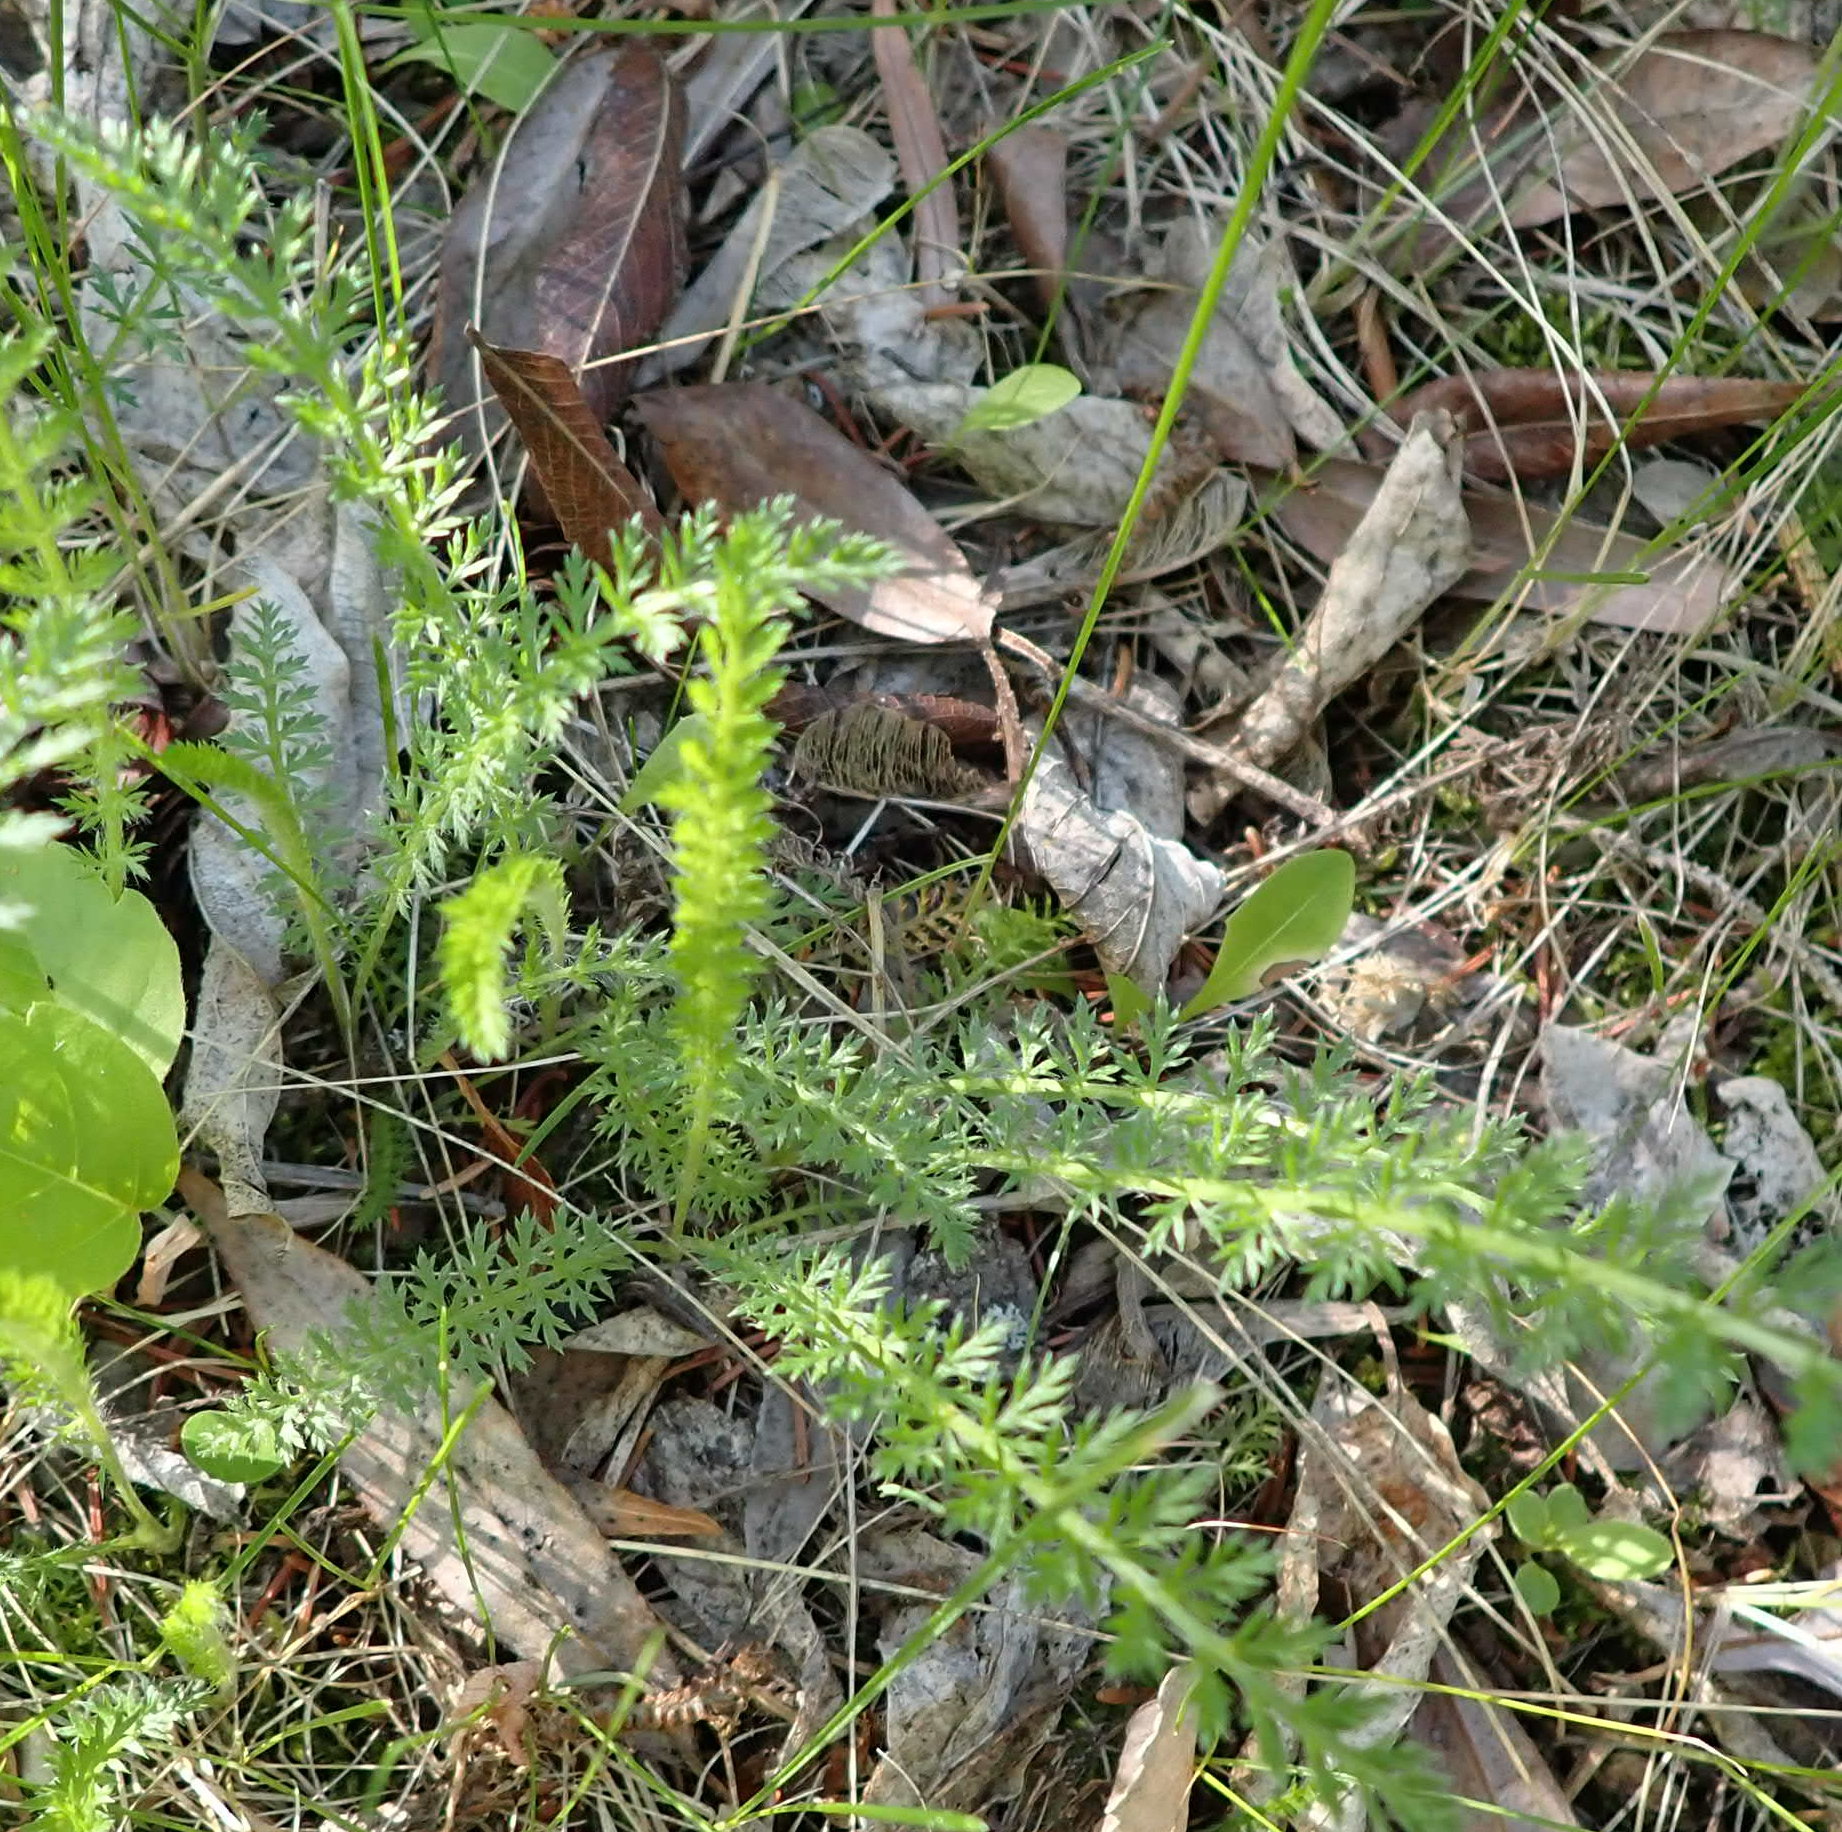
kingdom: Plantae
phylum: Tracheophyta
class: Magnoliopsida
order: Asterales
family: Asteraceae
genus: Achillea
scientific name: Achillea millefolium
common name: Yarrow
